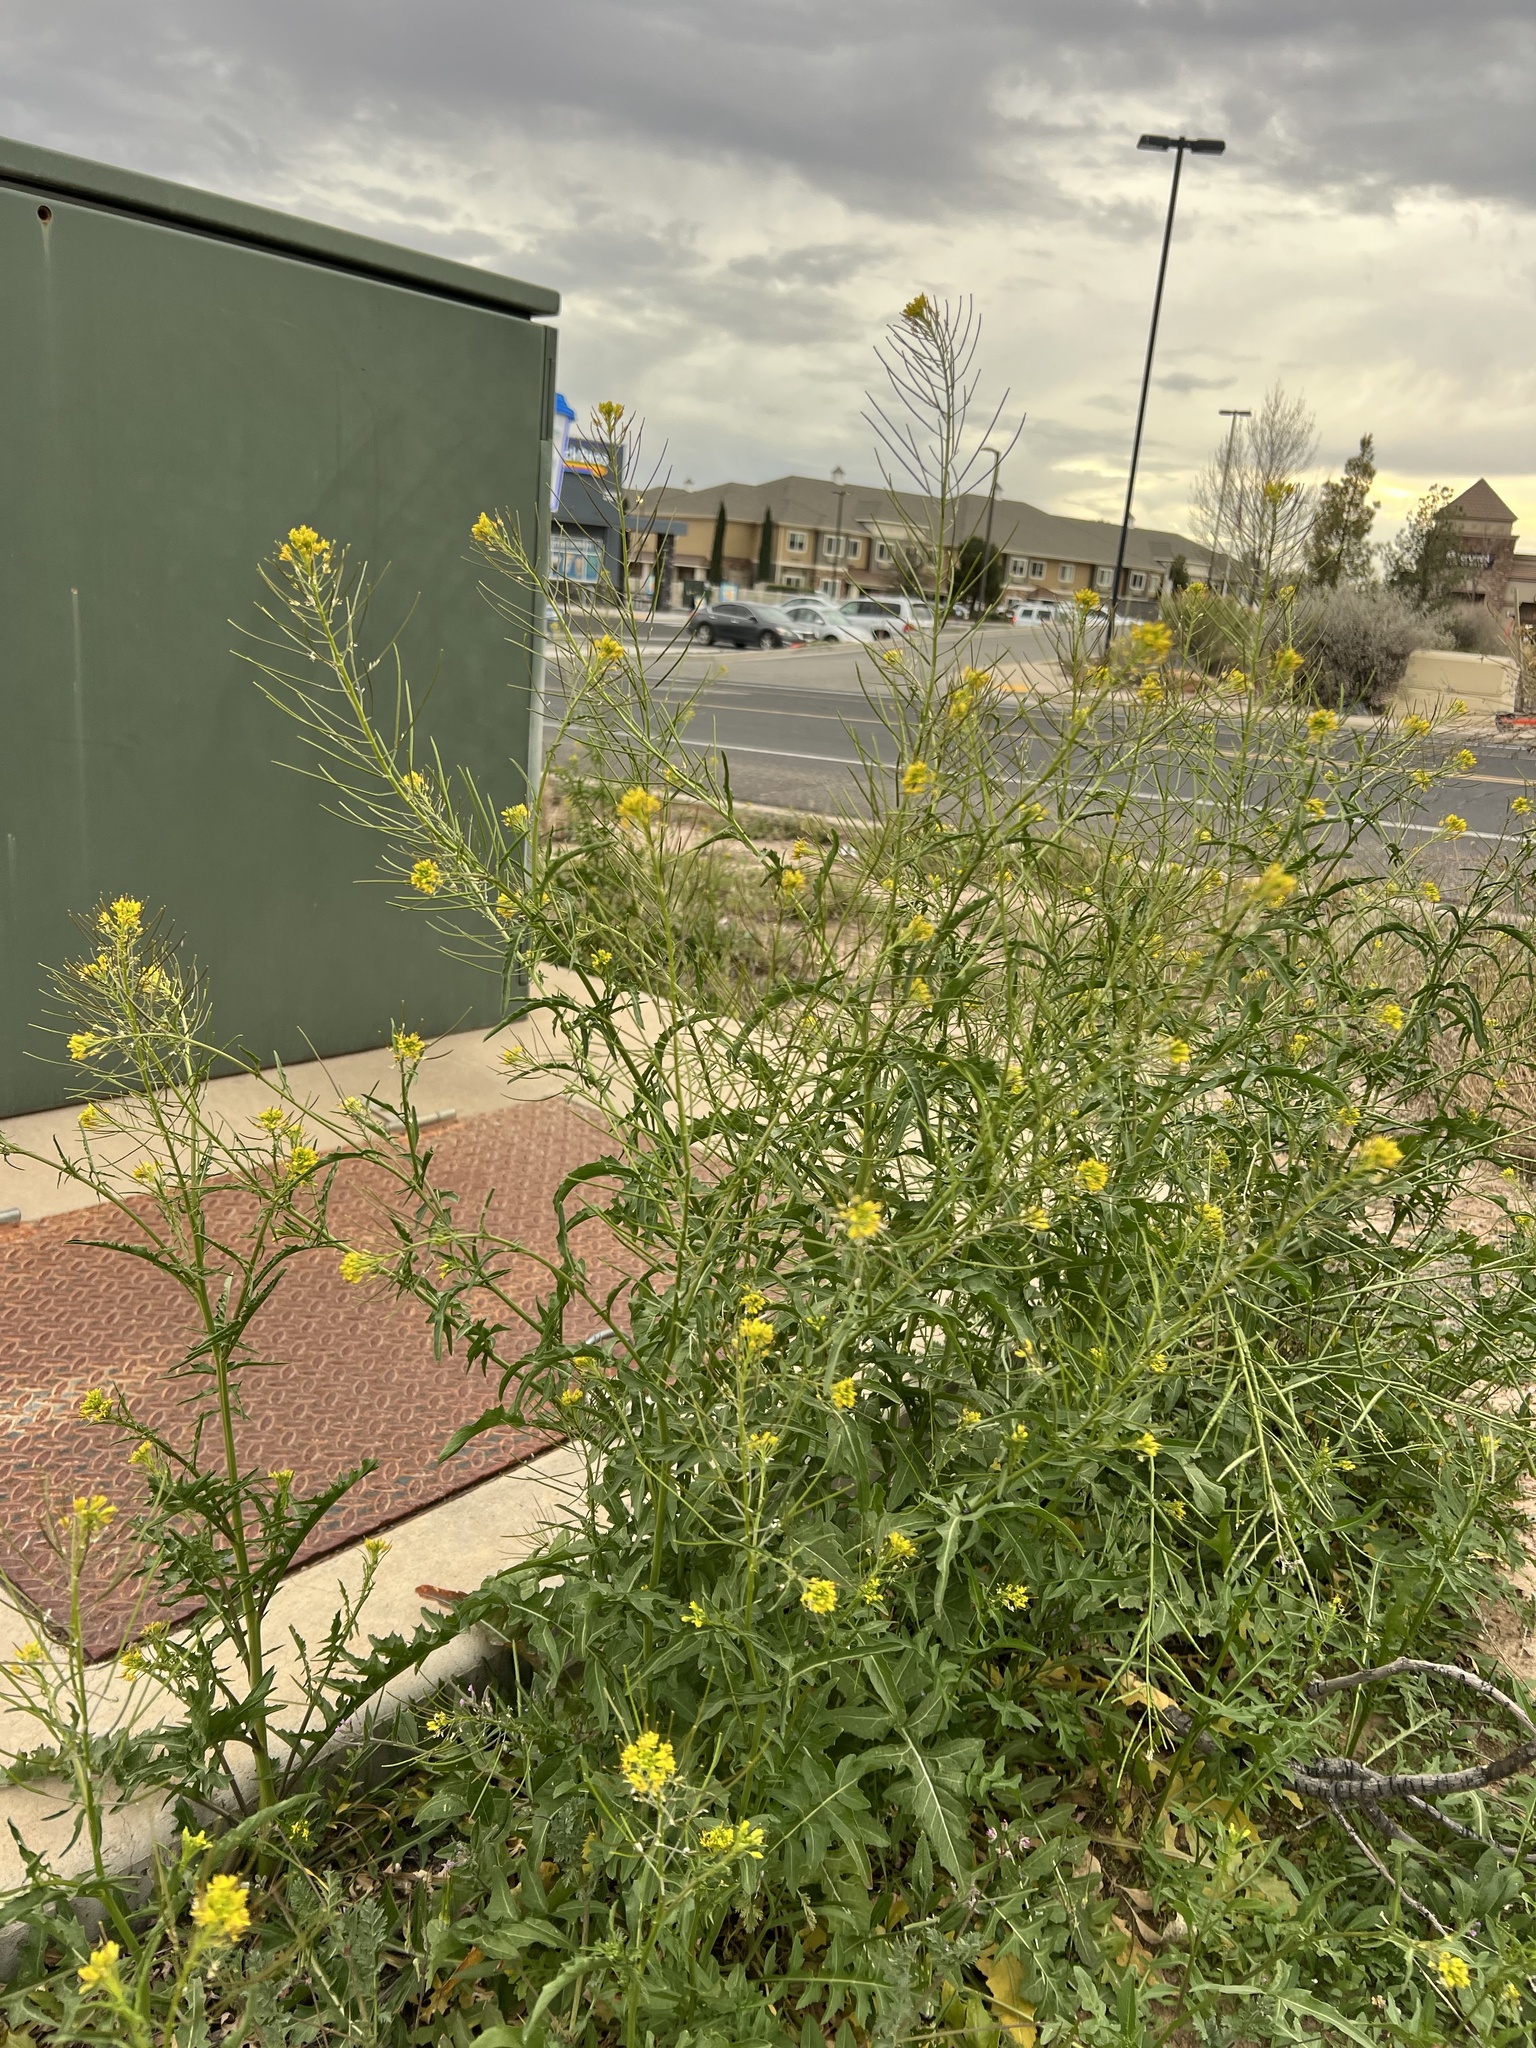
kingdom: Plantae
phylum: Tracheophyta
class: Magnoliopsida
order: Brassicales
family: Brassicaceae
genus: Sisymbrium
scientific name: Sisymbrium irio
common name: London rocket
